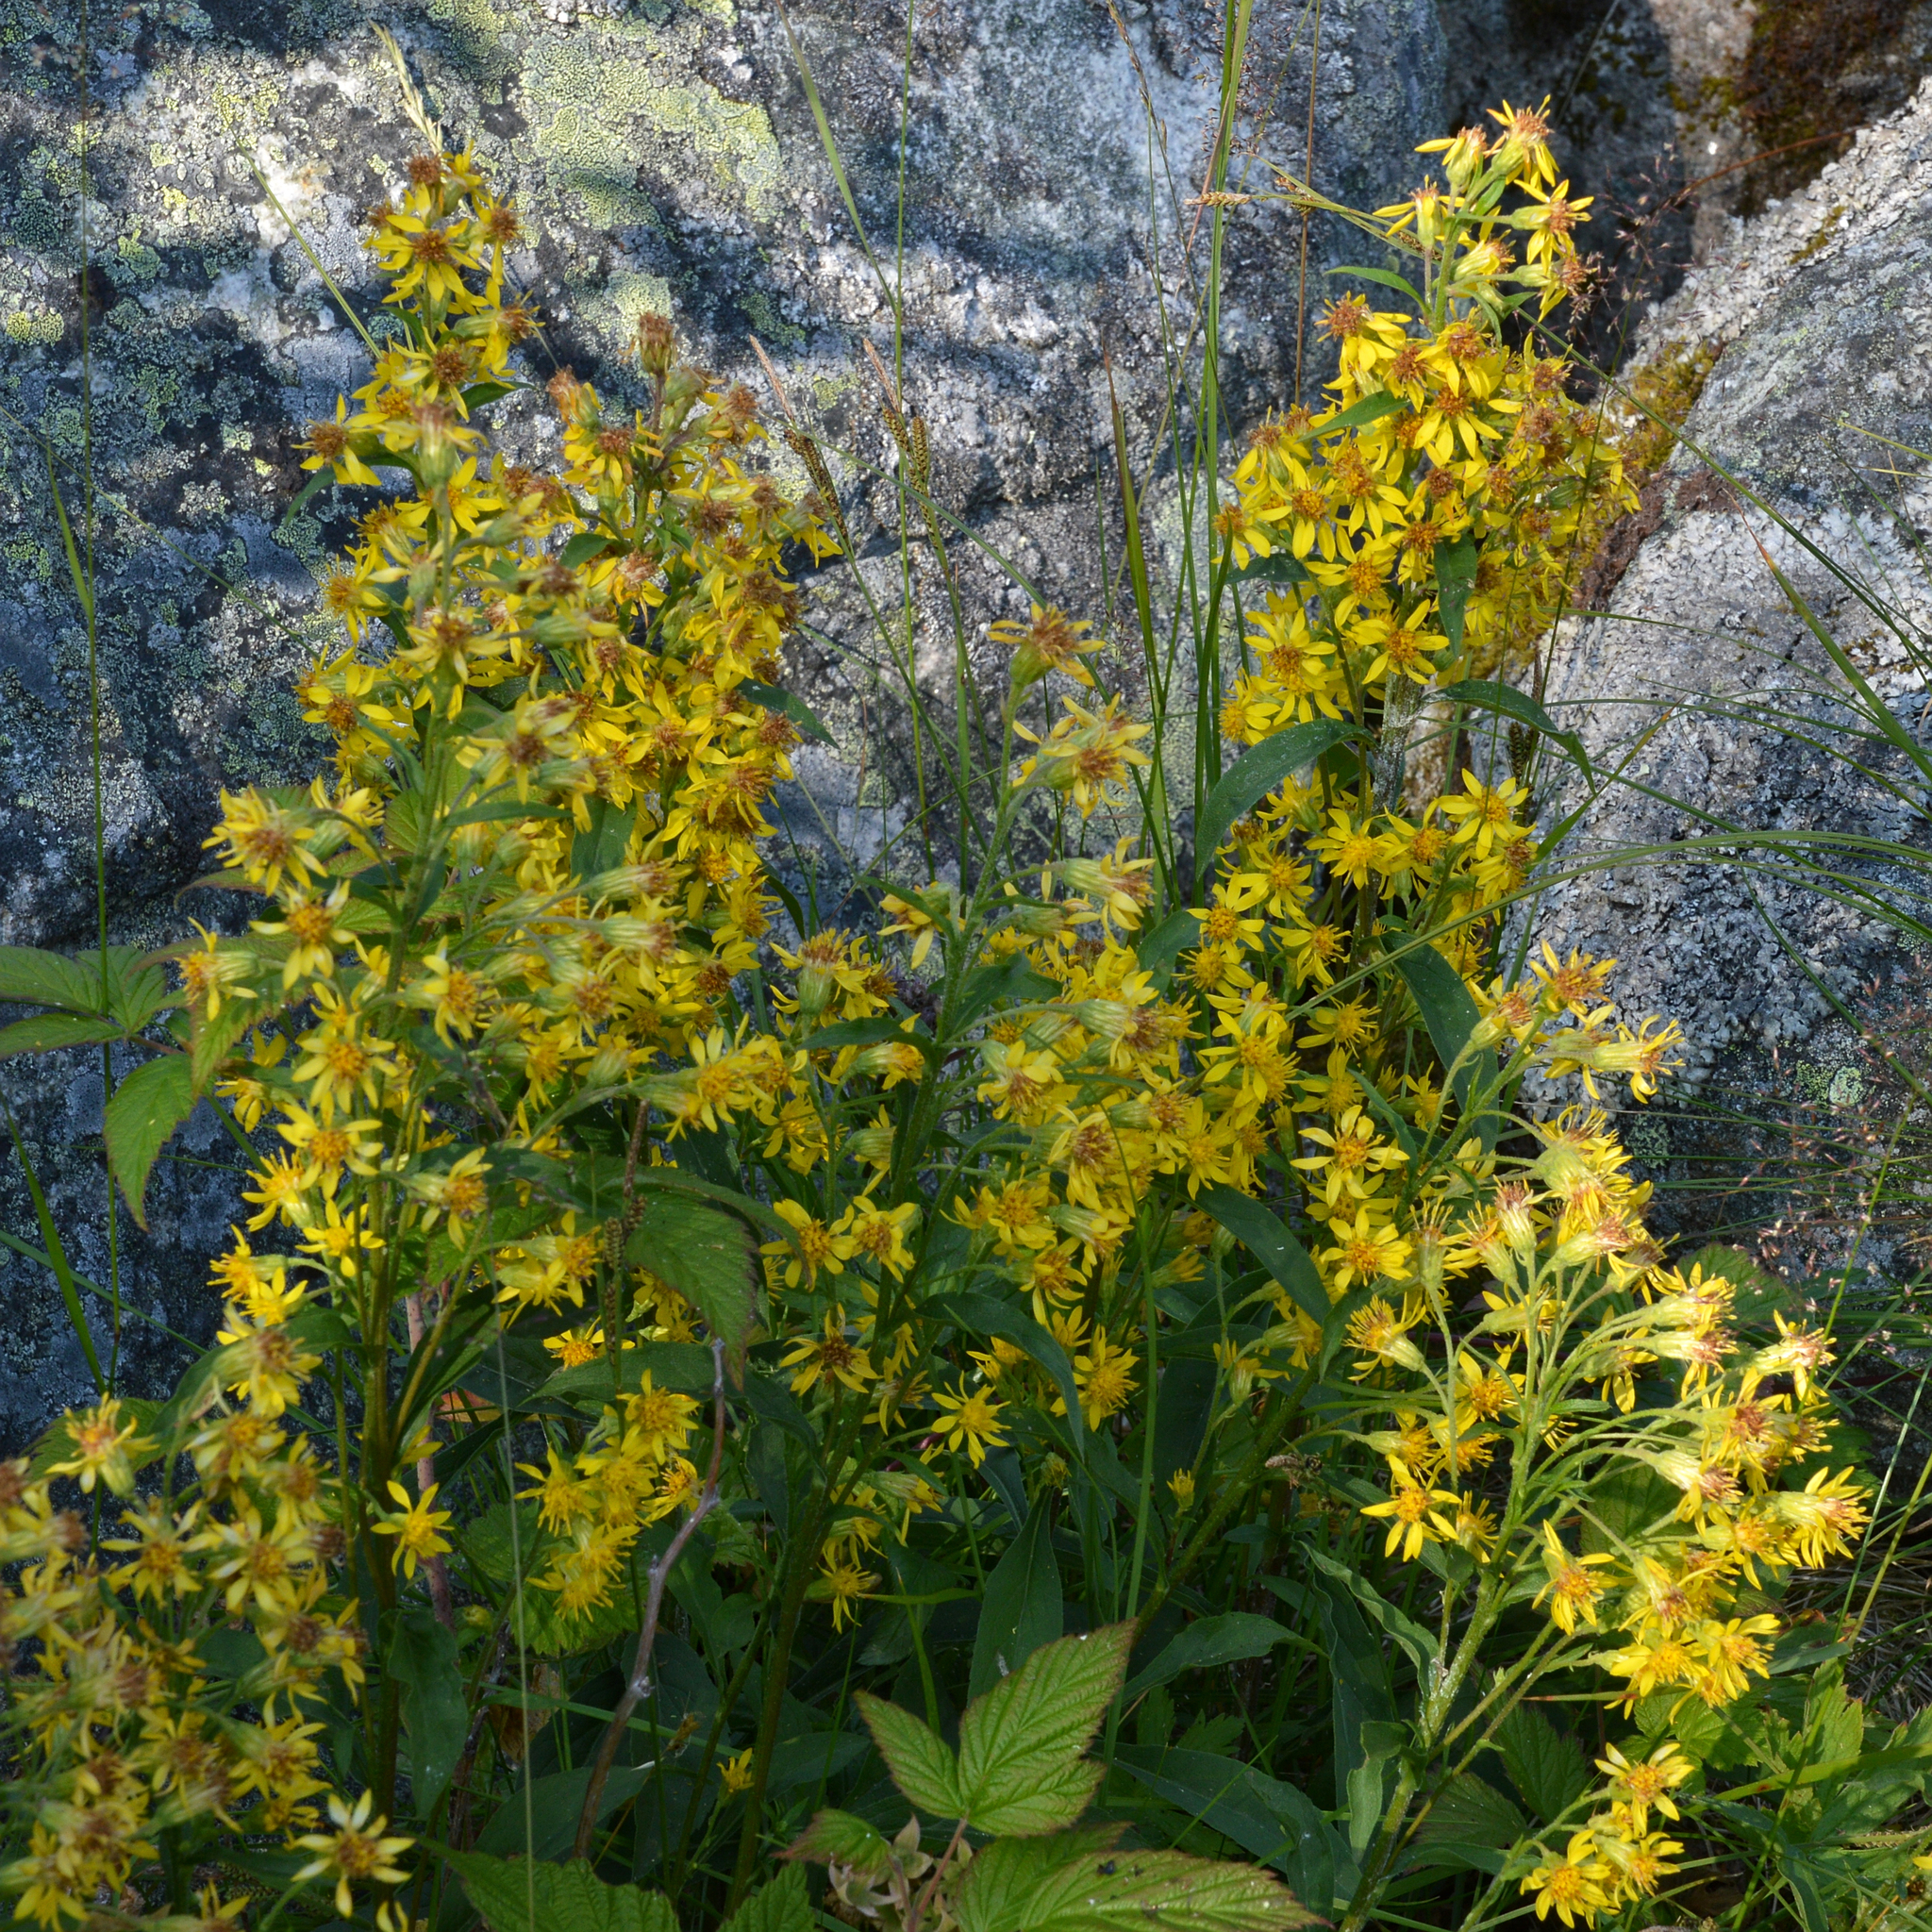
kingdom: Plantae
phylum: Tracheophyta
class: Magnoliopsida
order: Asterales
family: Asteraceae
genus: Solidago
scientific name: Solidago virgaurea
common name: Goldenrod
